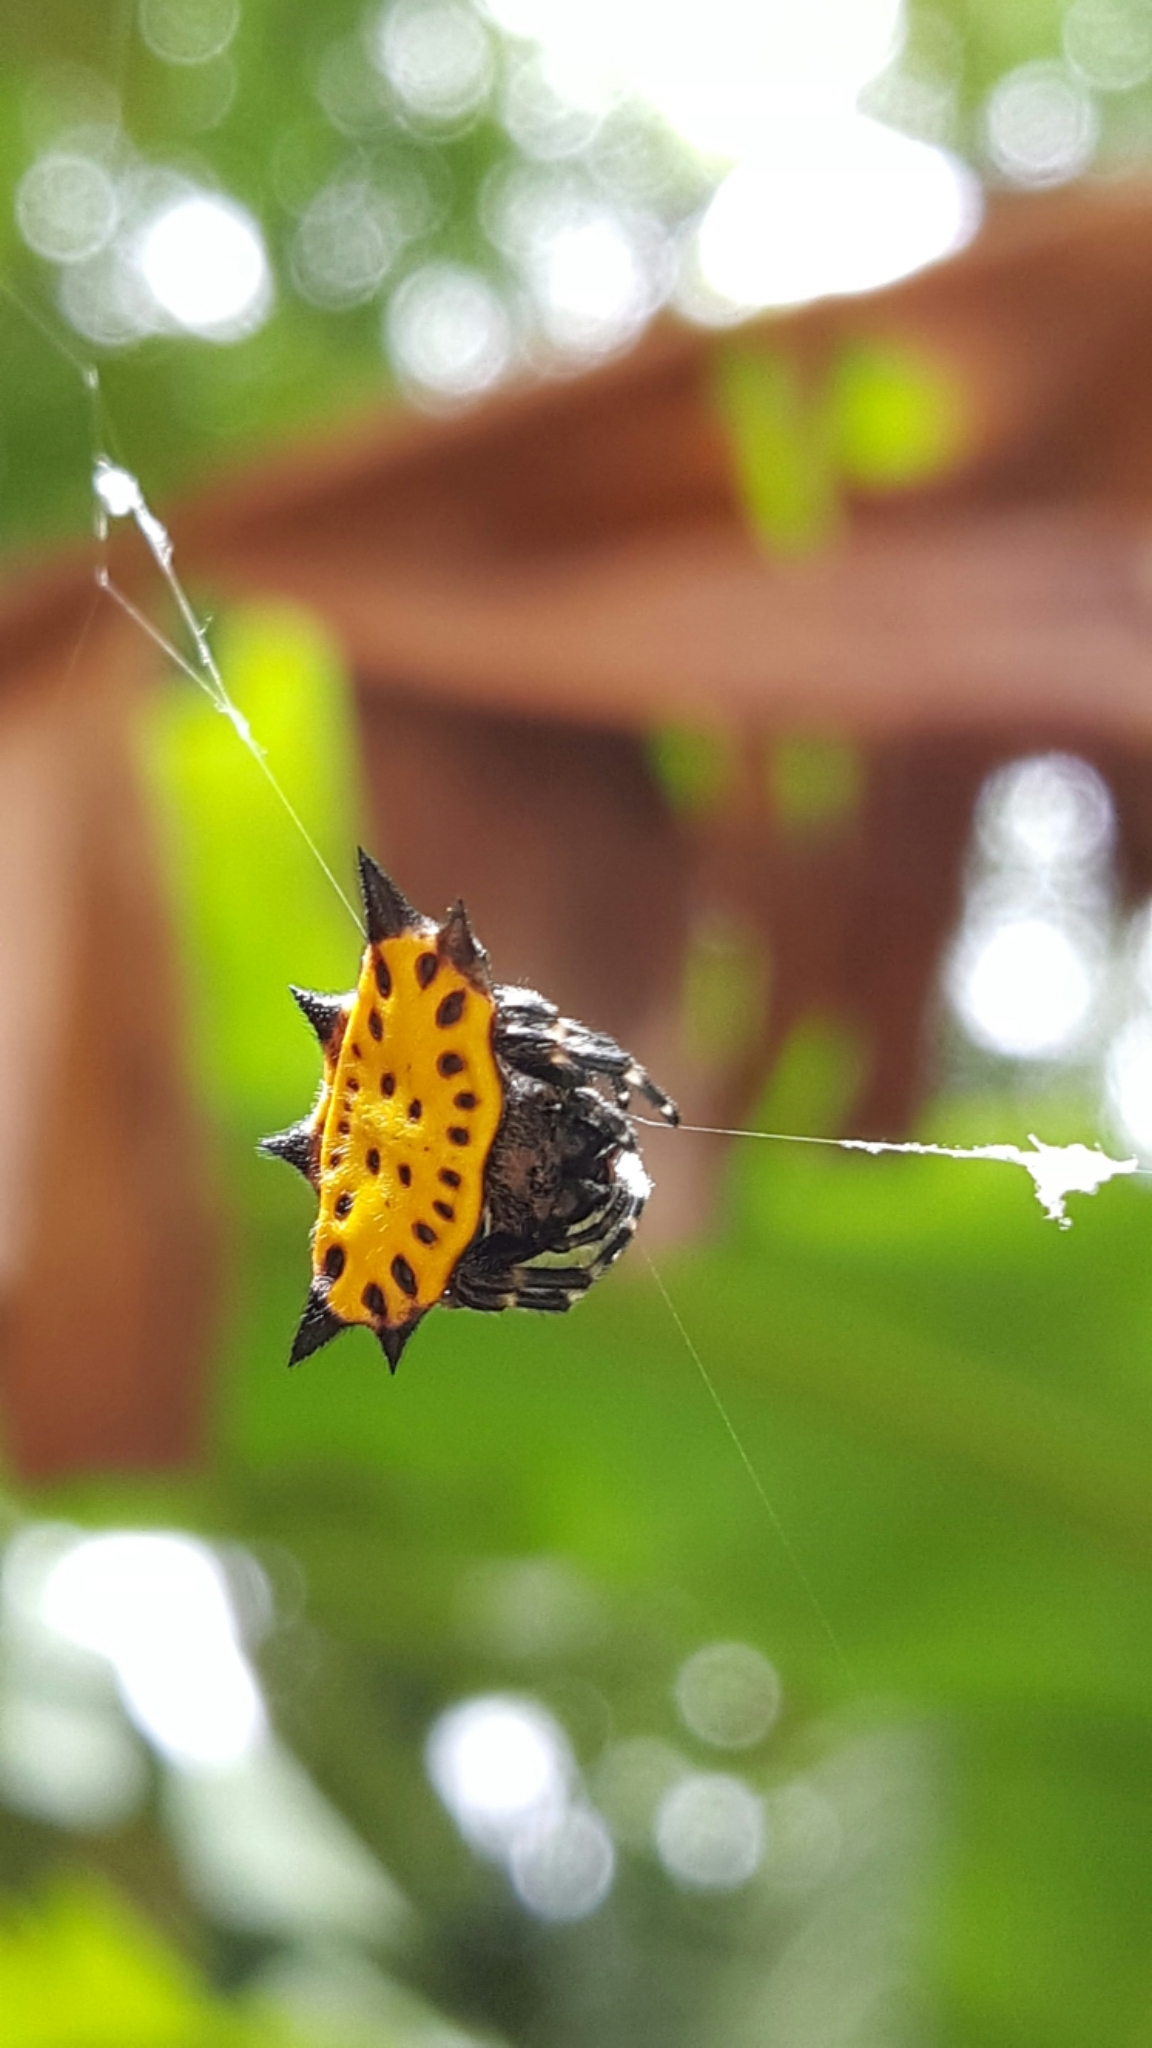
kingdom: Animalia
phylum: Arthropoda
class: Arachnida
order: Araneae
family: Araneidae
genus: Gasteracantha
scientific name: Gasteracantha cancriformis
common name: Orb weavers
